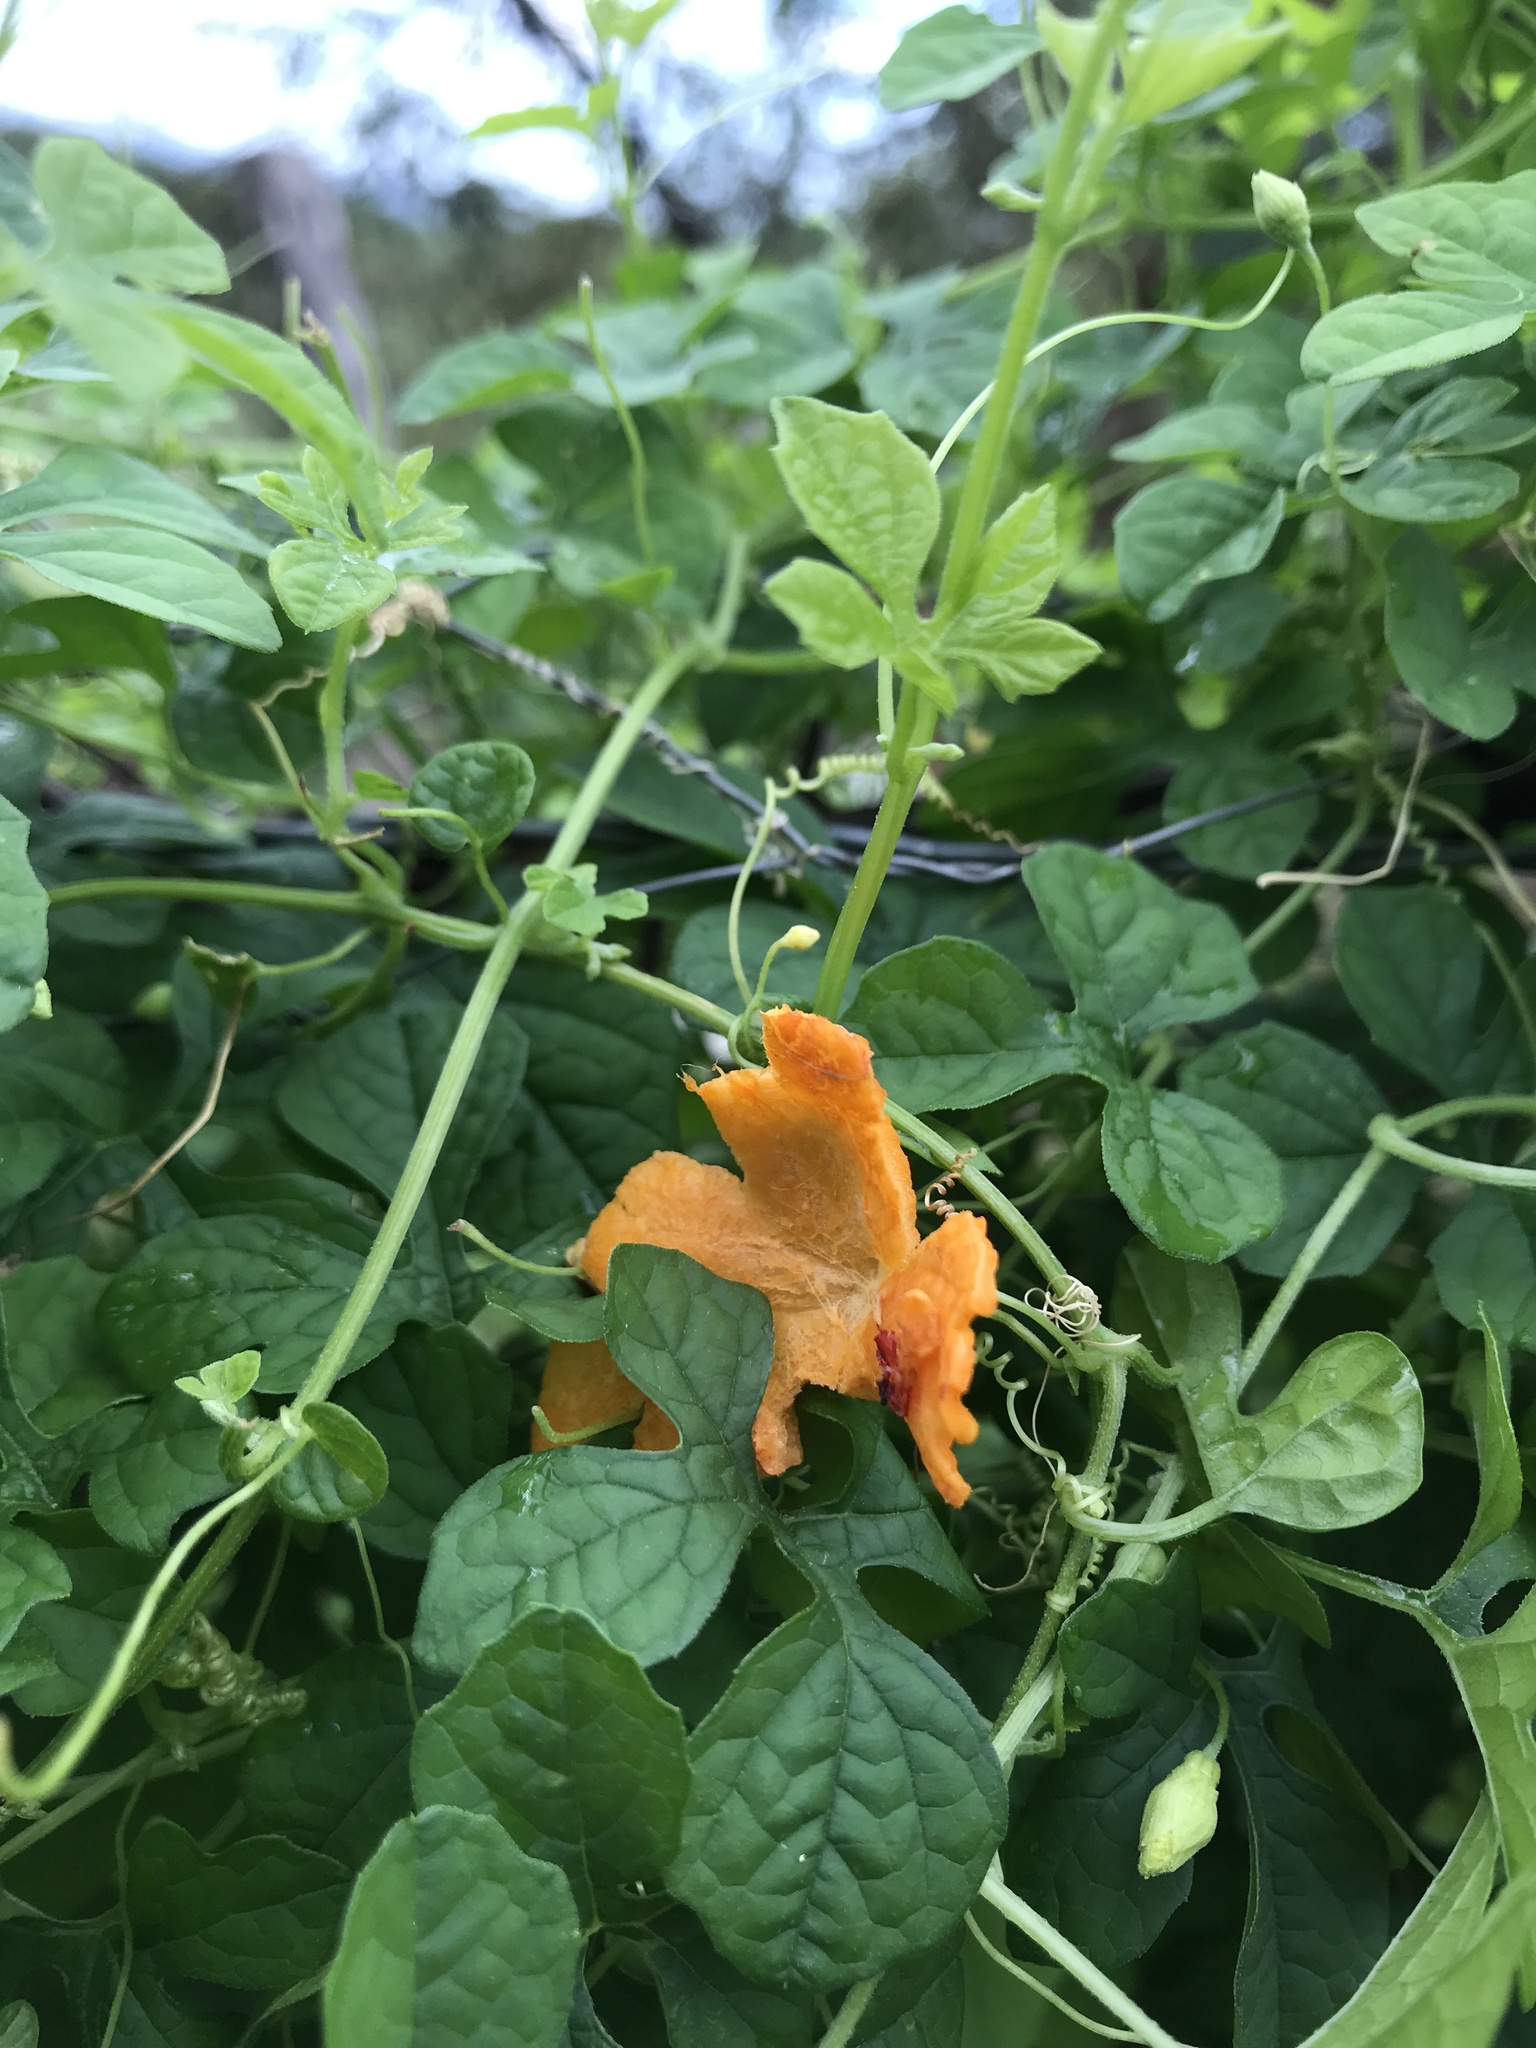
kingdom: Plantae
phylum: Tracheophyta
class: Magnoliopsida
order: Cucurbitales
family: Cucurbitaceae
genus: Momordica
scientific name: Momordica charantia
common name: Balsampear
